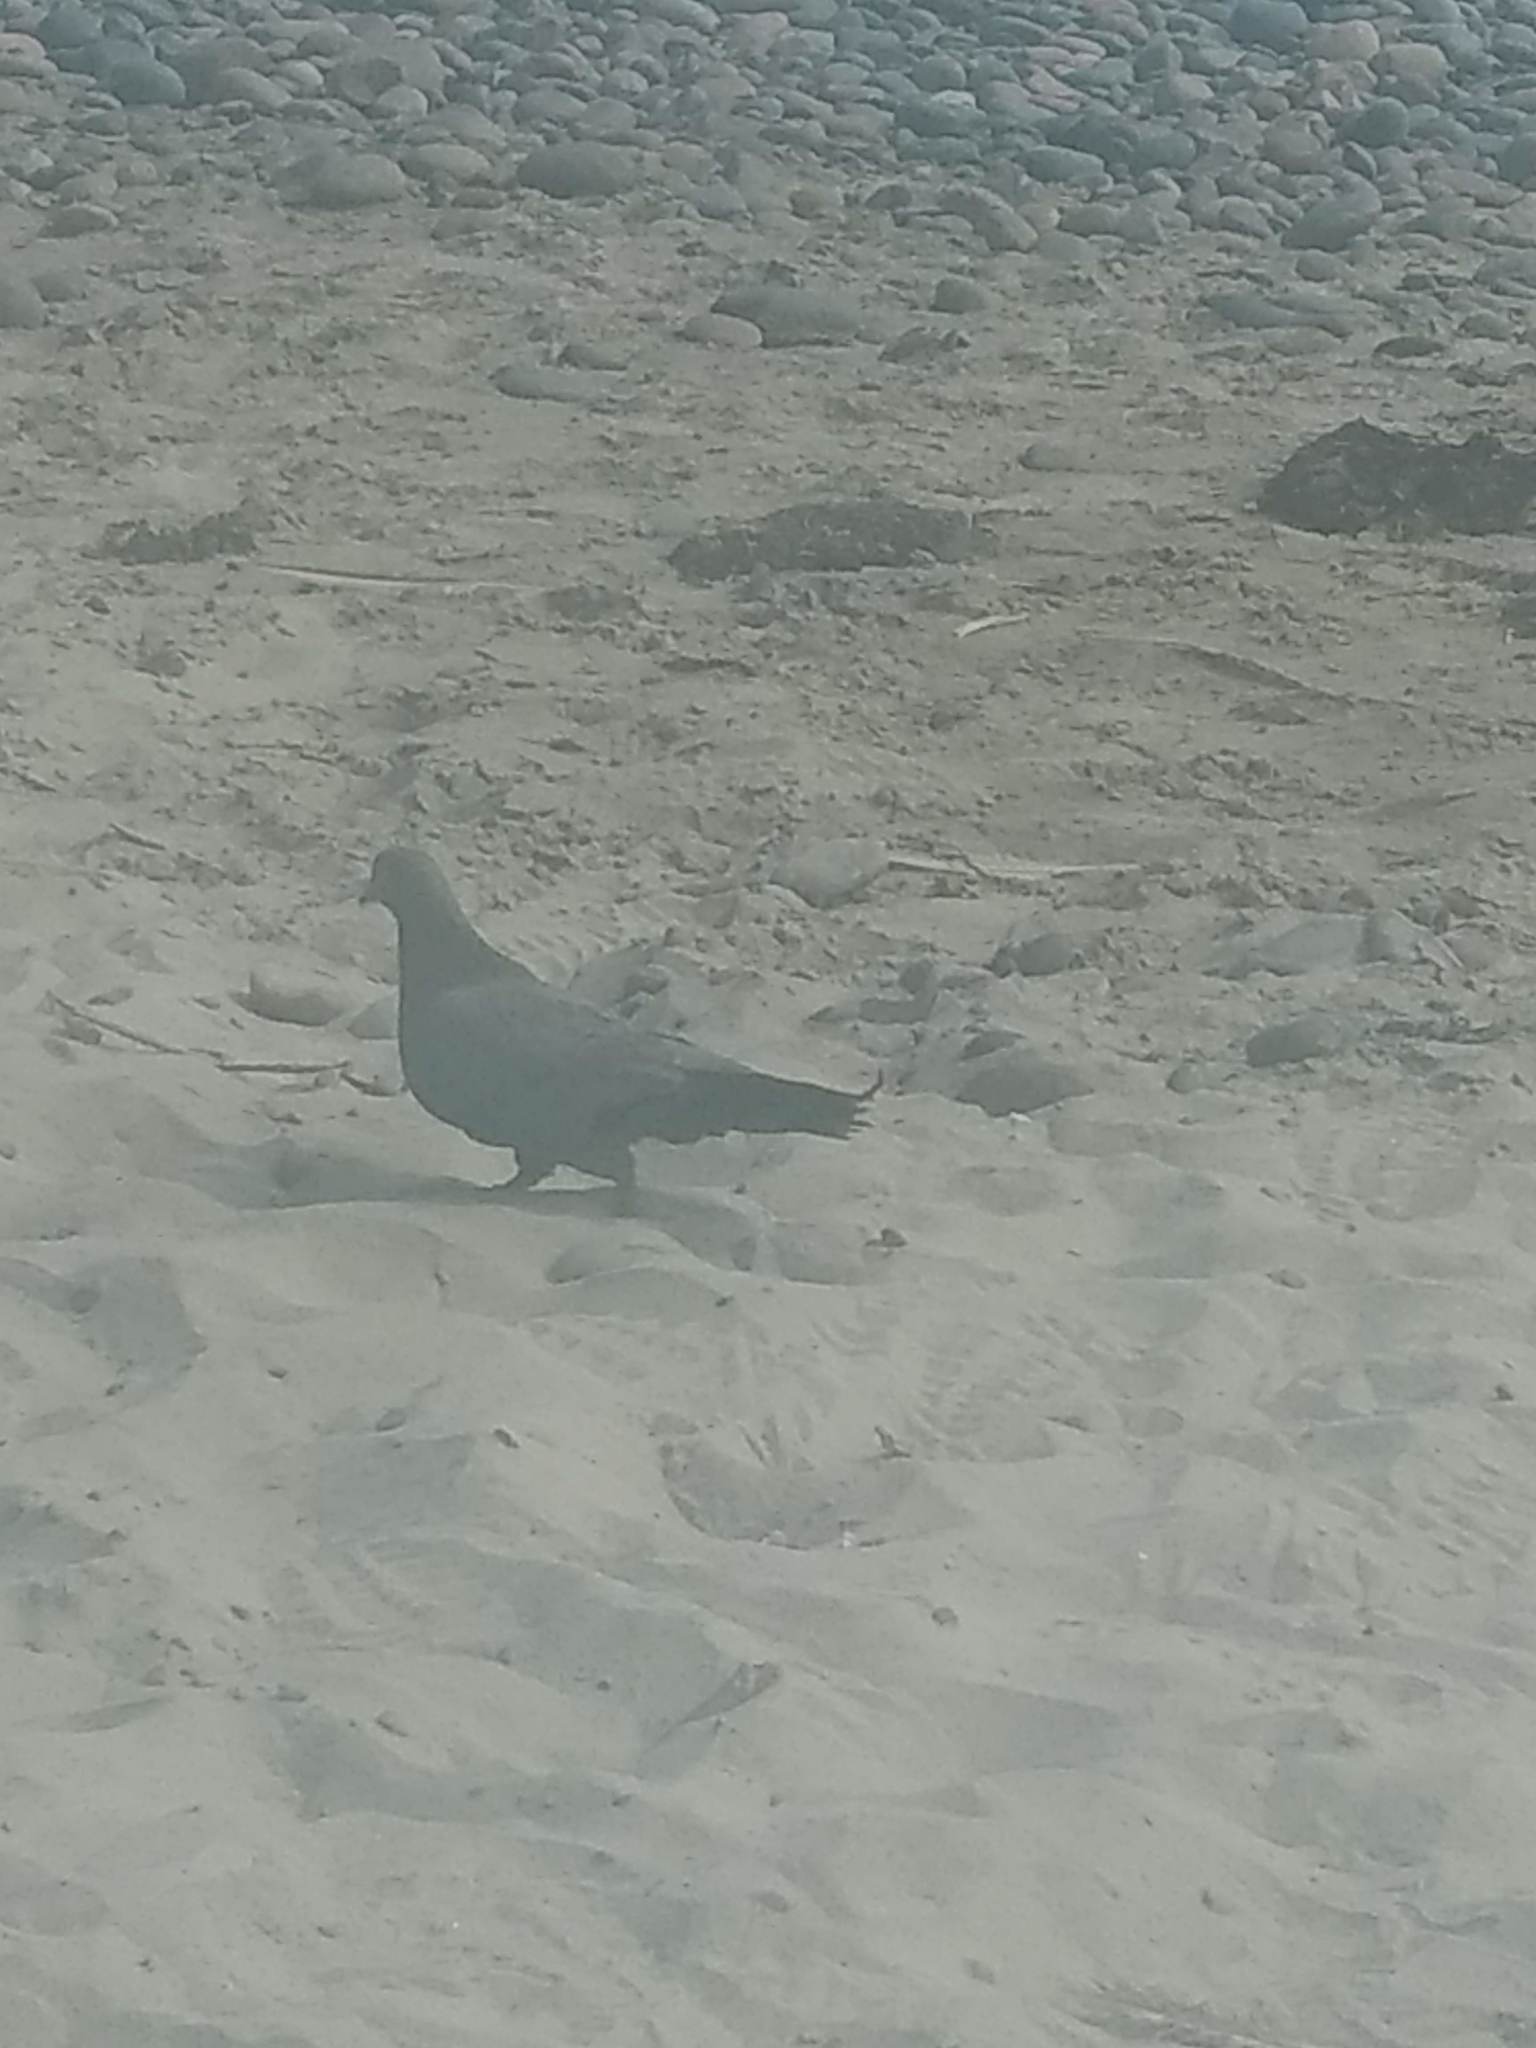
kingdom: Animalia
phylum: Chordata
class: Aves
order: Columbiformes
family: Columbidae
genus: Columba
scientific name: Columba livia
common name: Rock pigeon
